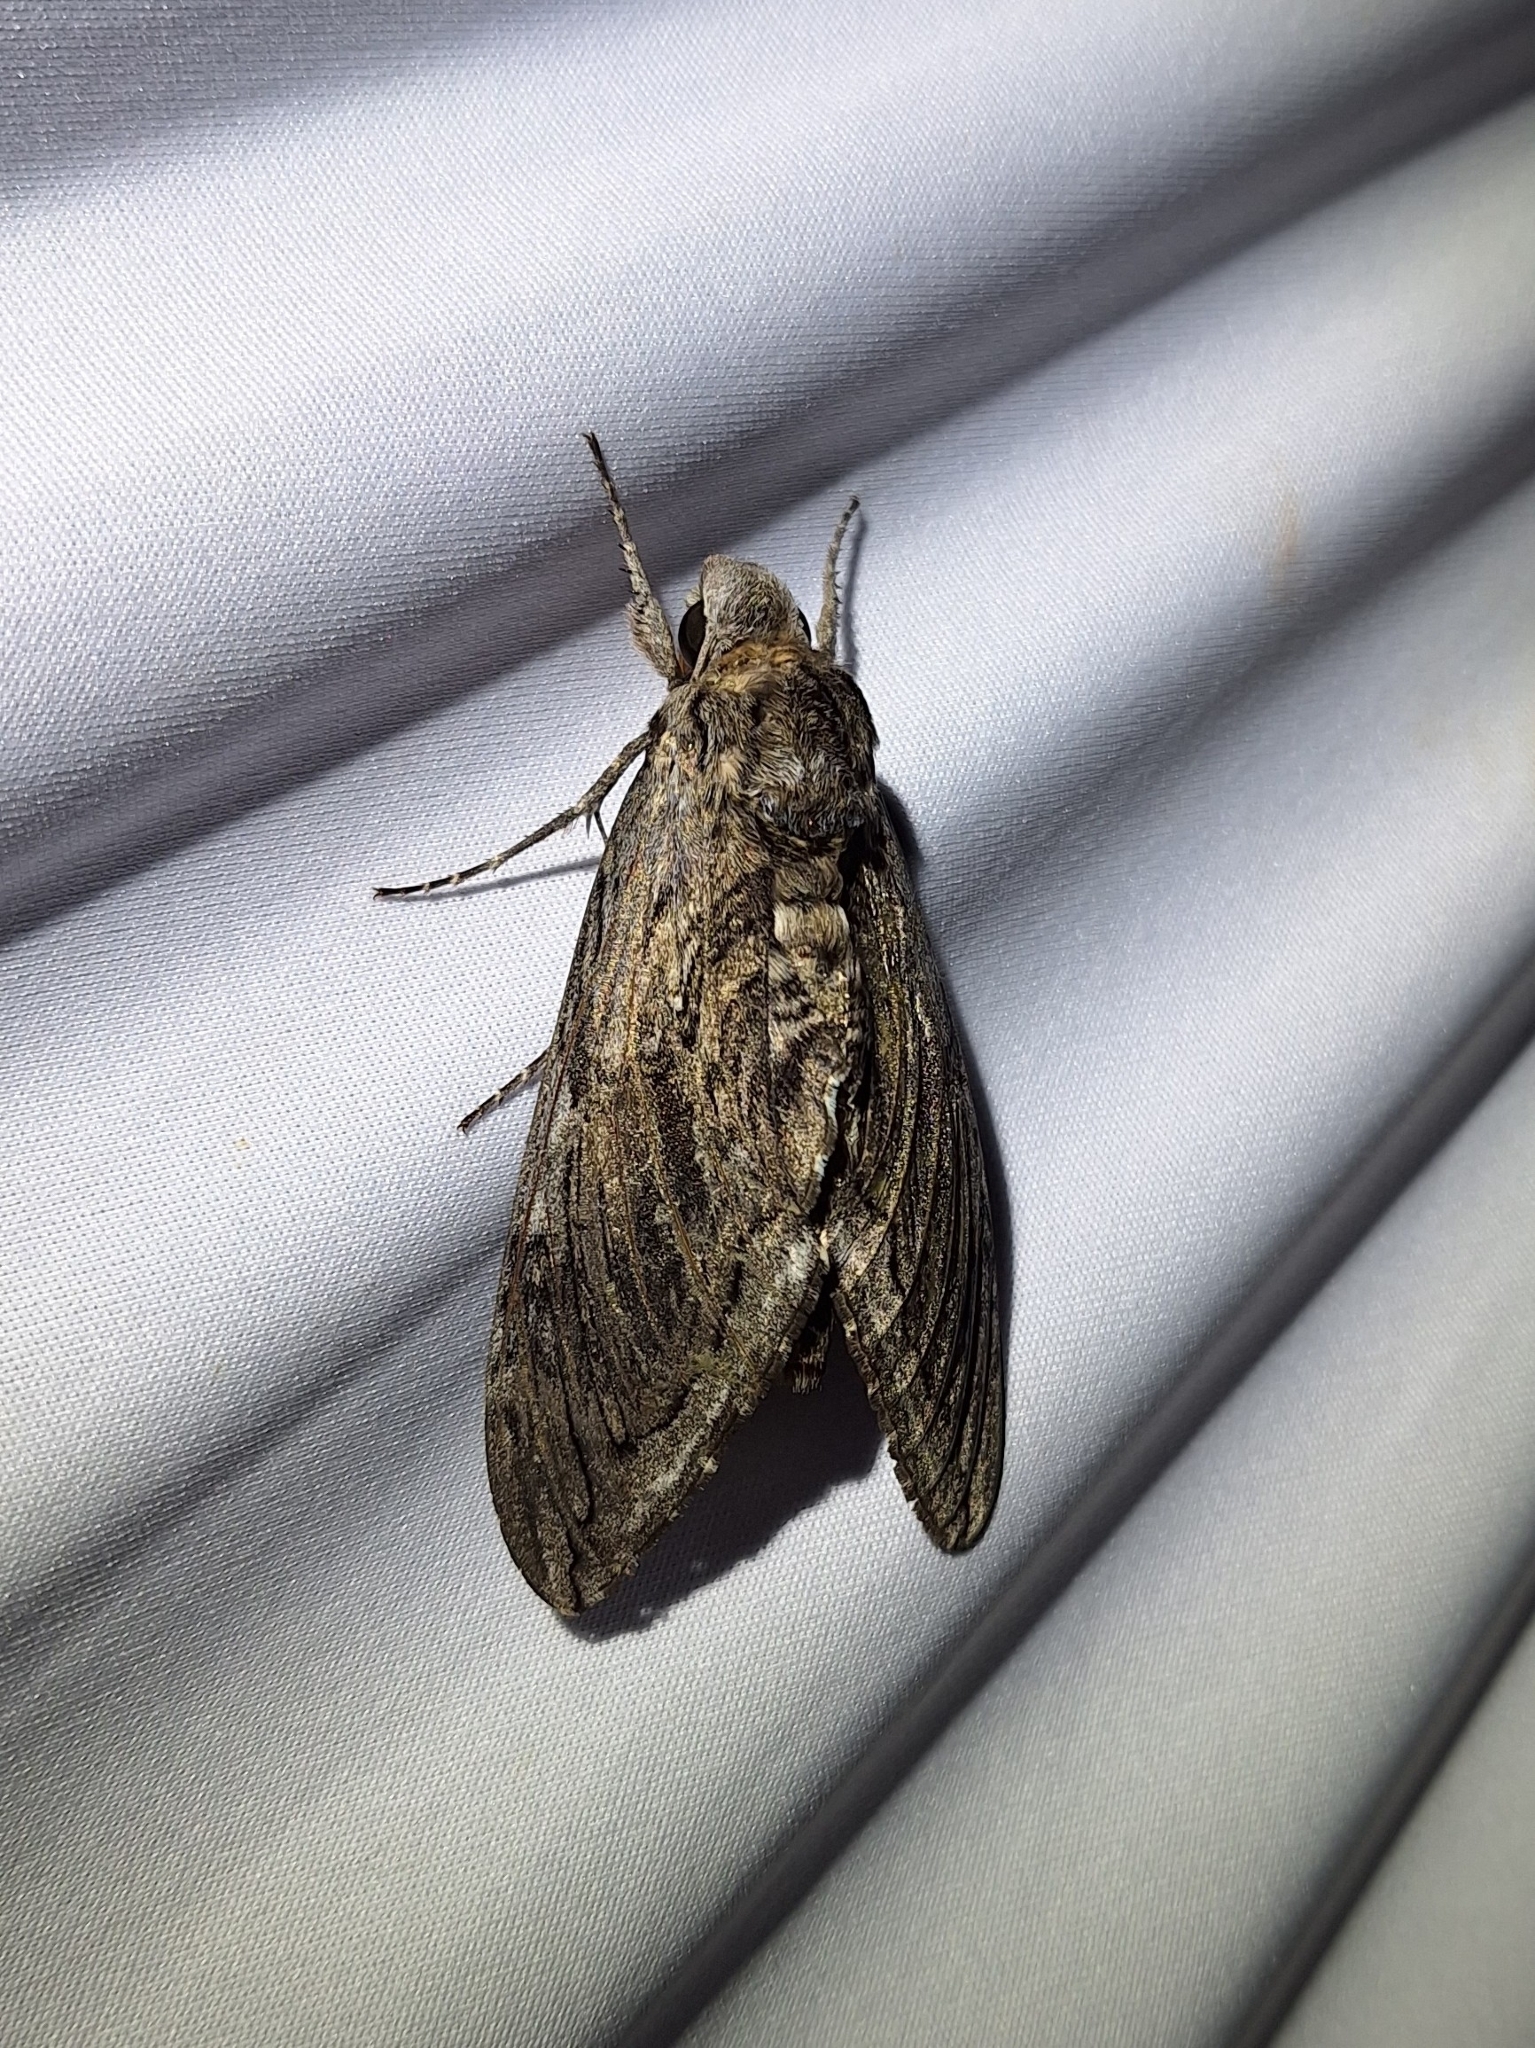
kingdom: Animalia
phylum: Arthropoda
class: Insecta
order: Lepidoptera
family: Sphingidae
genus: Manduca
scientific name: Manduca quinquemaculatus
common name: Five-spotted hawk-moth
